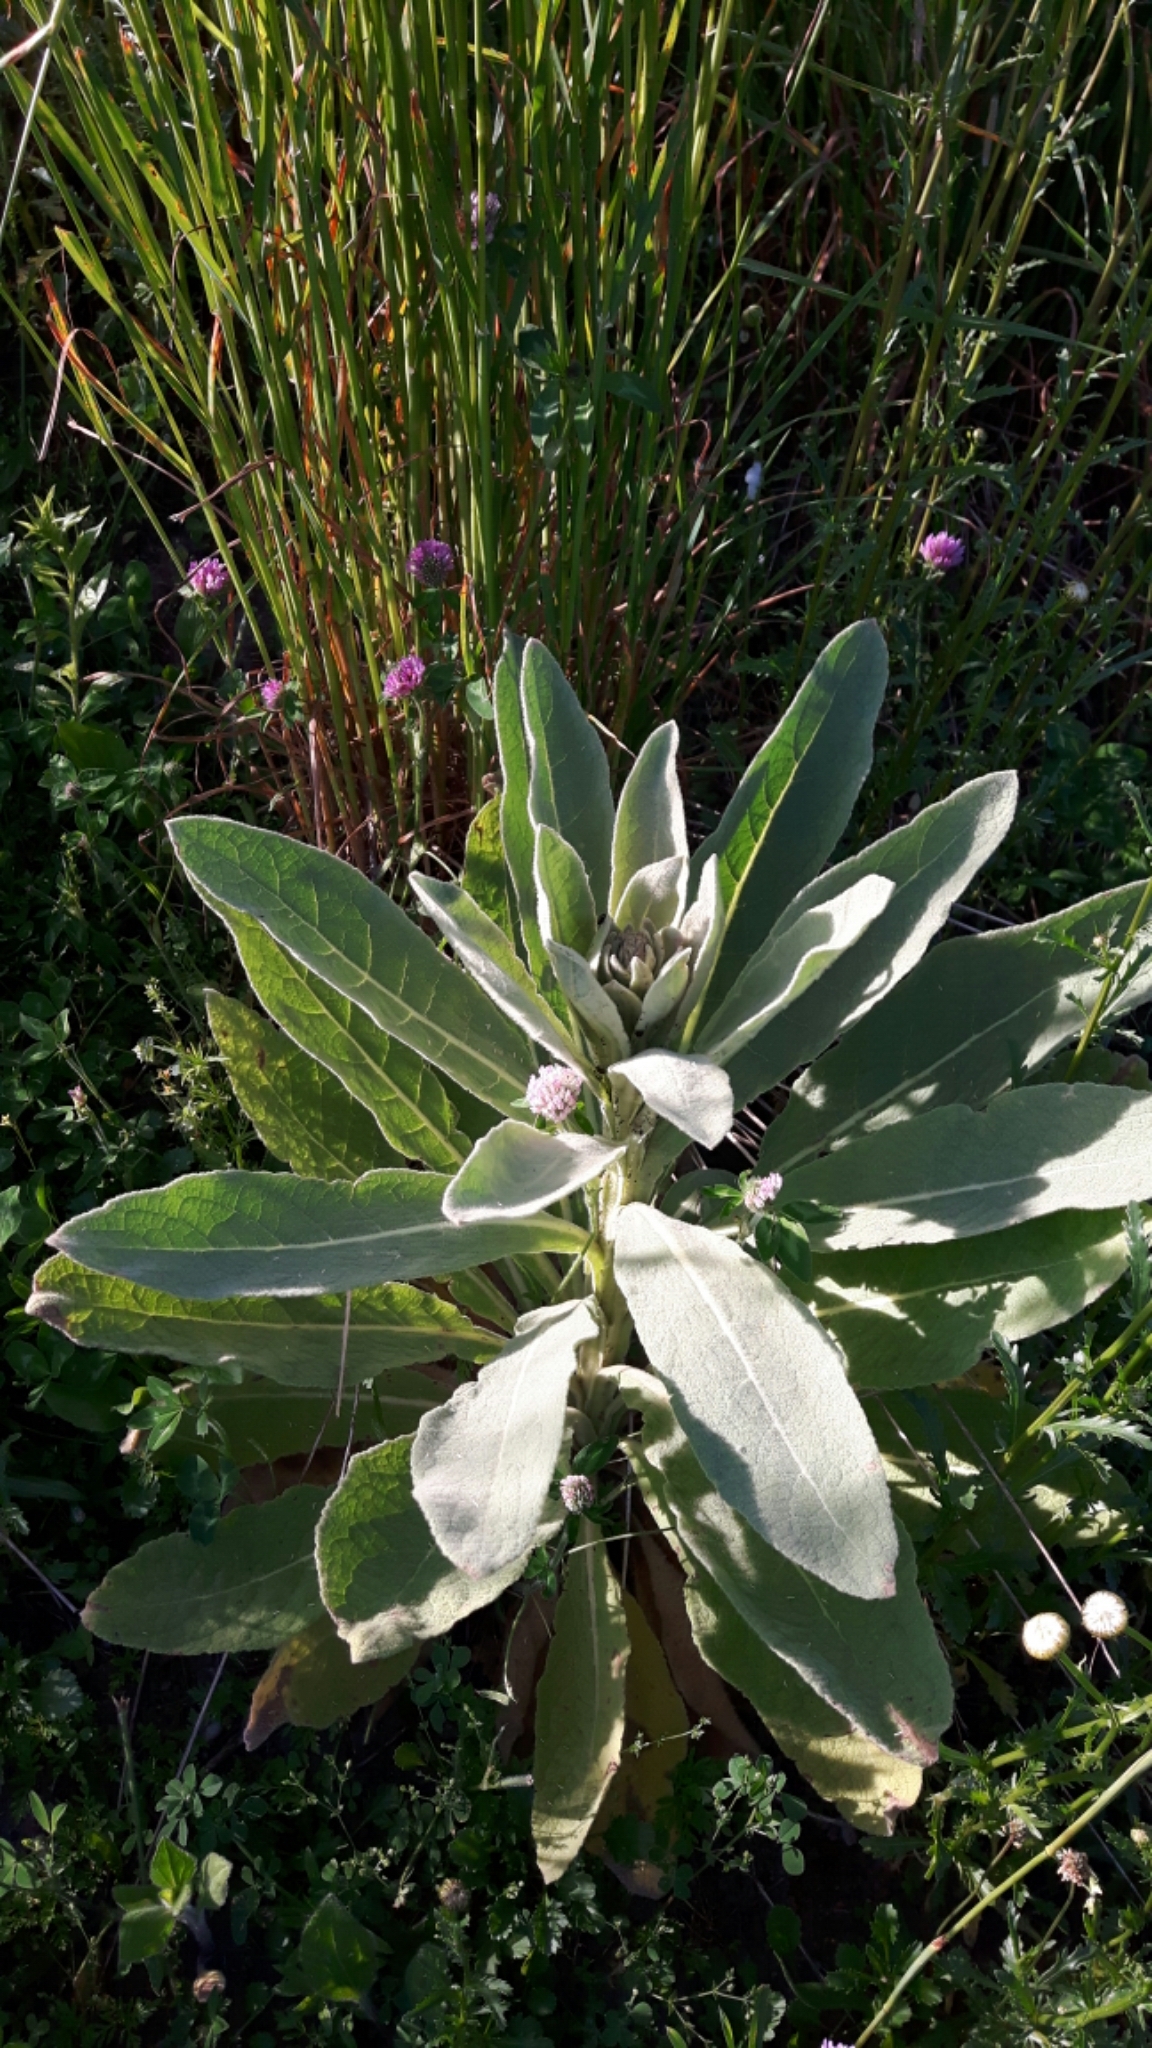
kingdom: Plantae
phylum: Tracheophyta
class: Magnoliopsida
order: Lamiales
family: Scrophulariaceae
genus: Verbascum
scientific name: Verbascum thapsus
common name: Common mullein
